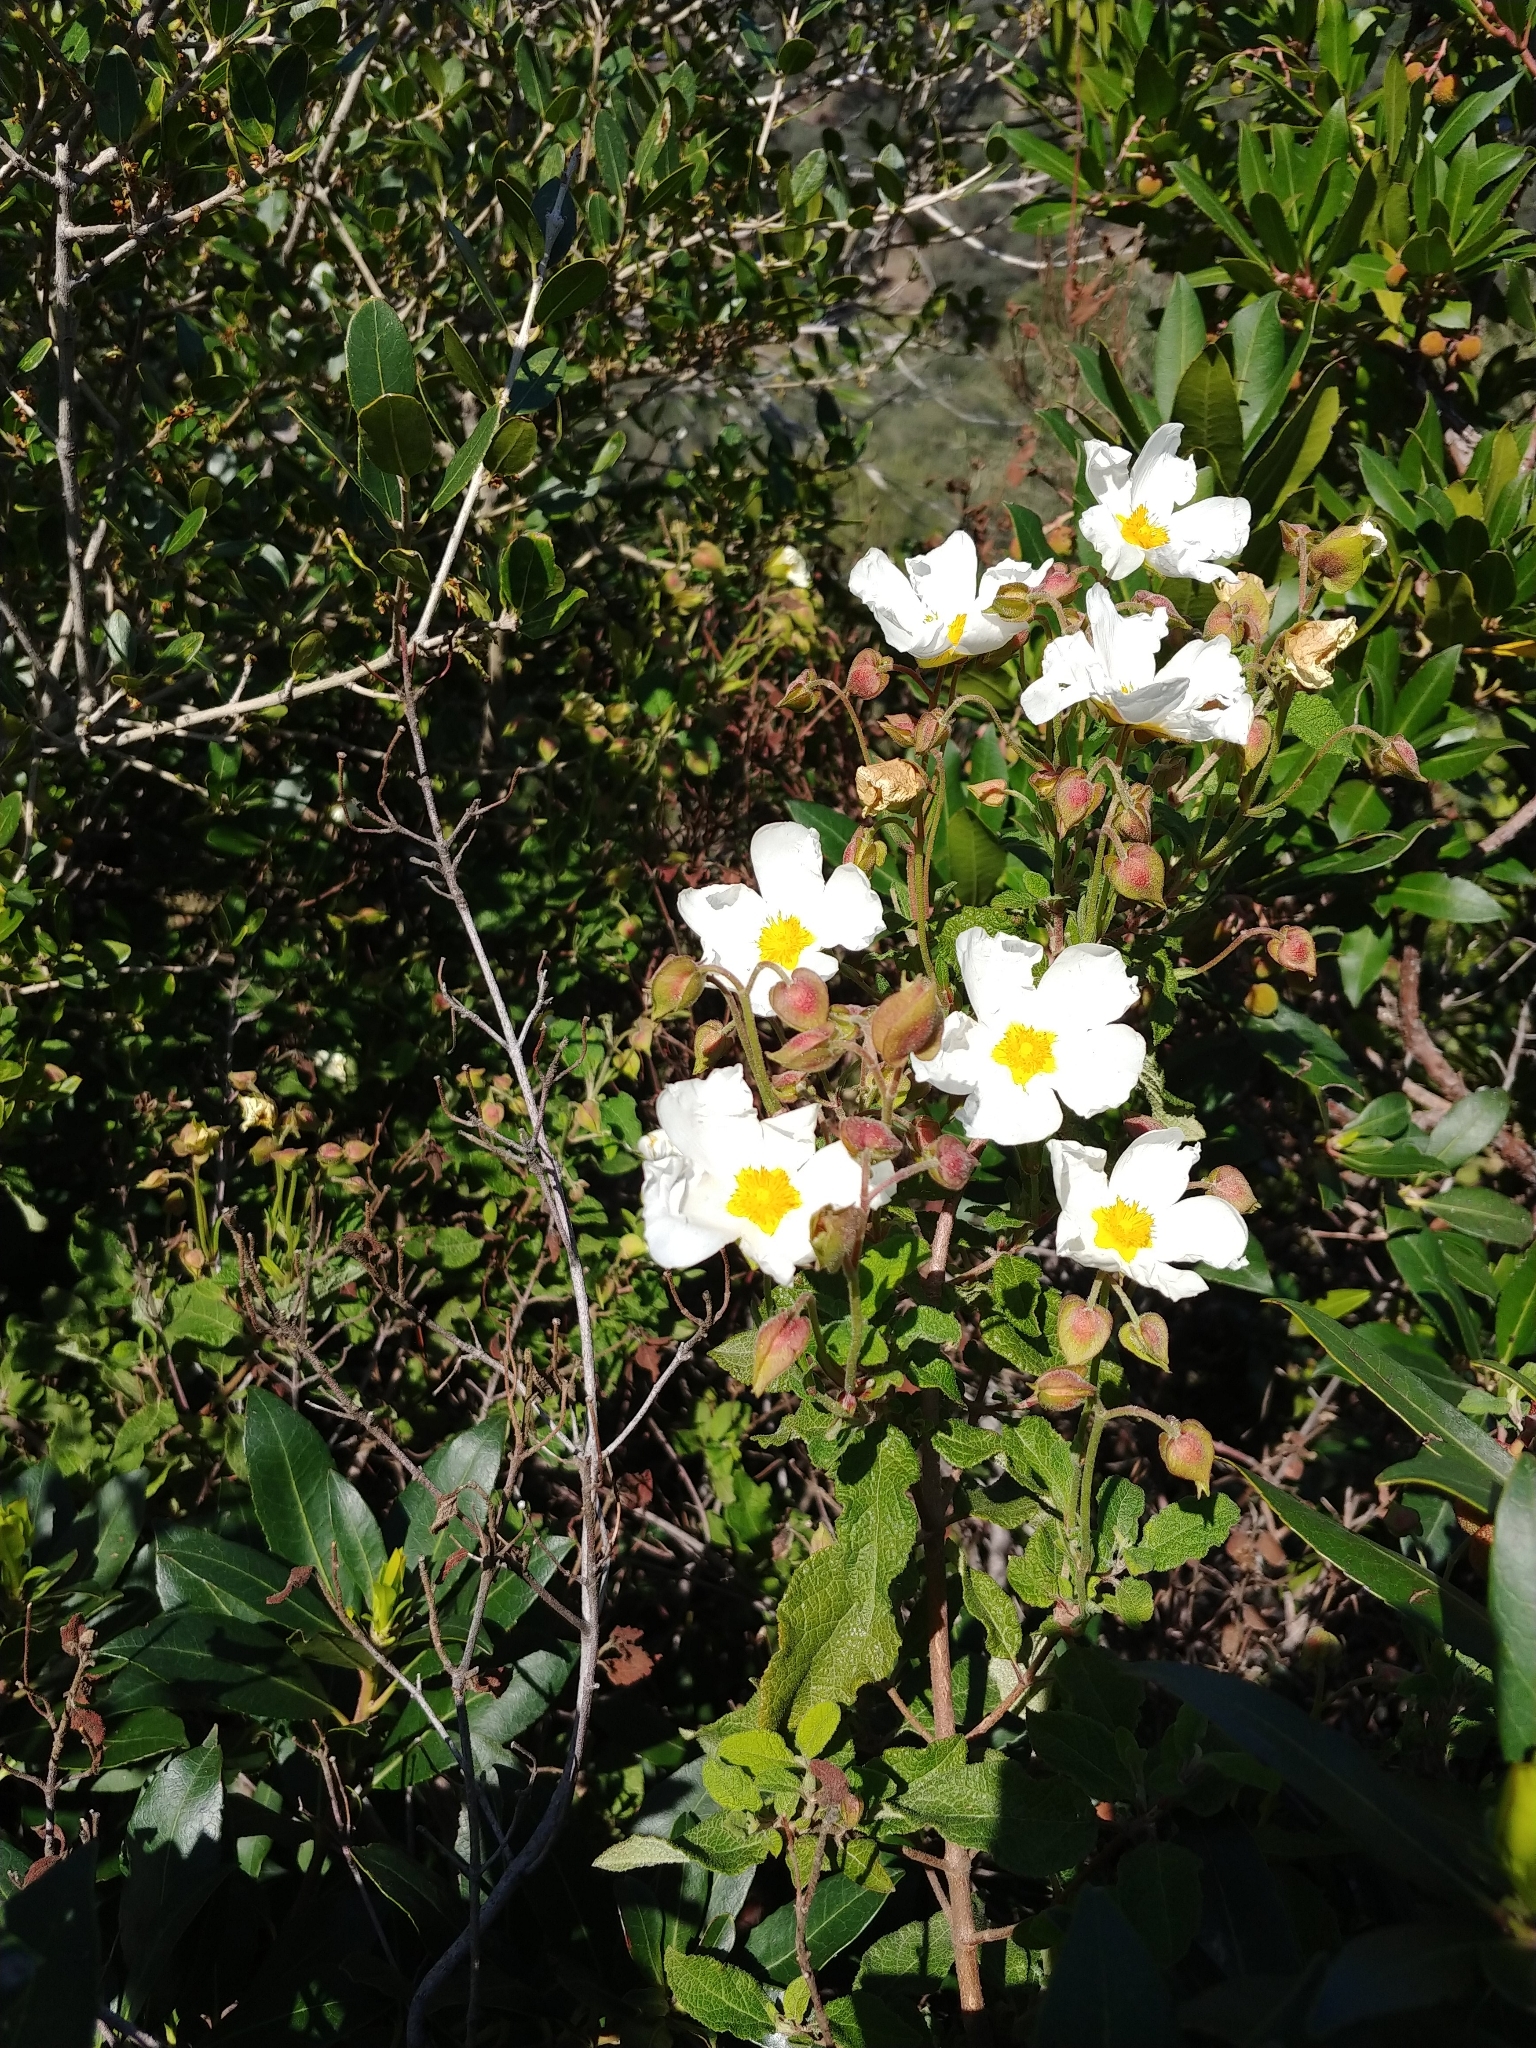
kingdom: Plantae
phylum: Tracheophyta
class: Magnoliopsida
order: Malvales
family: Cistaceae
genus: Cistus
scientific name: Cistus salviifolius
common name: Salvia cistus
